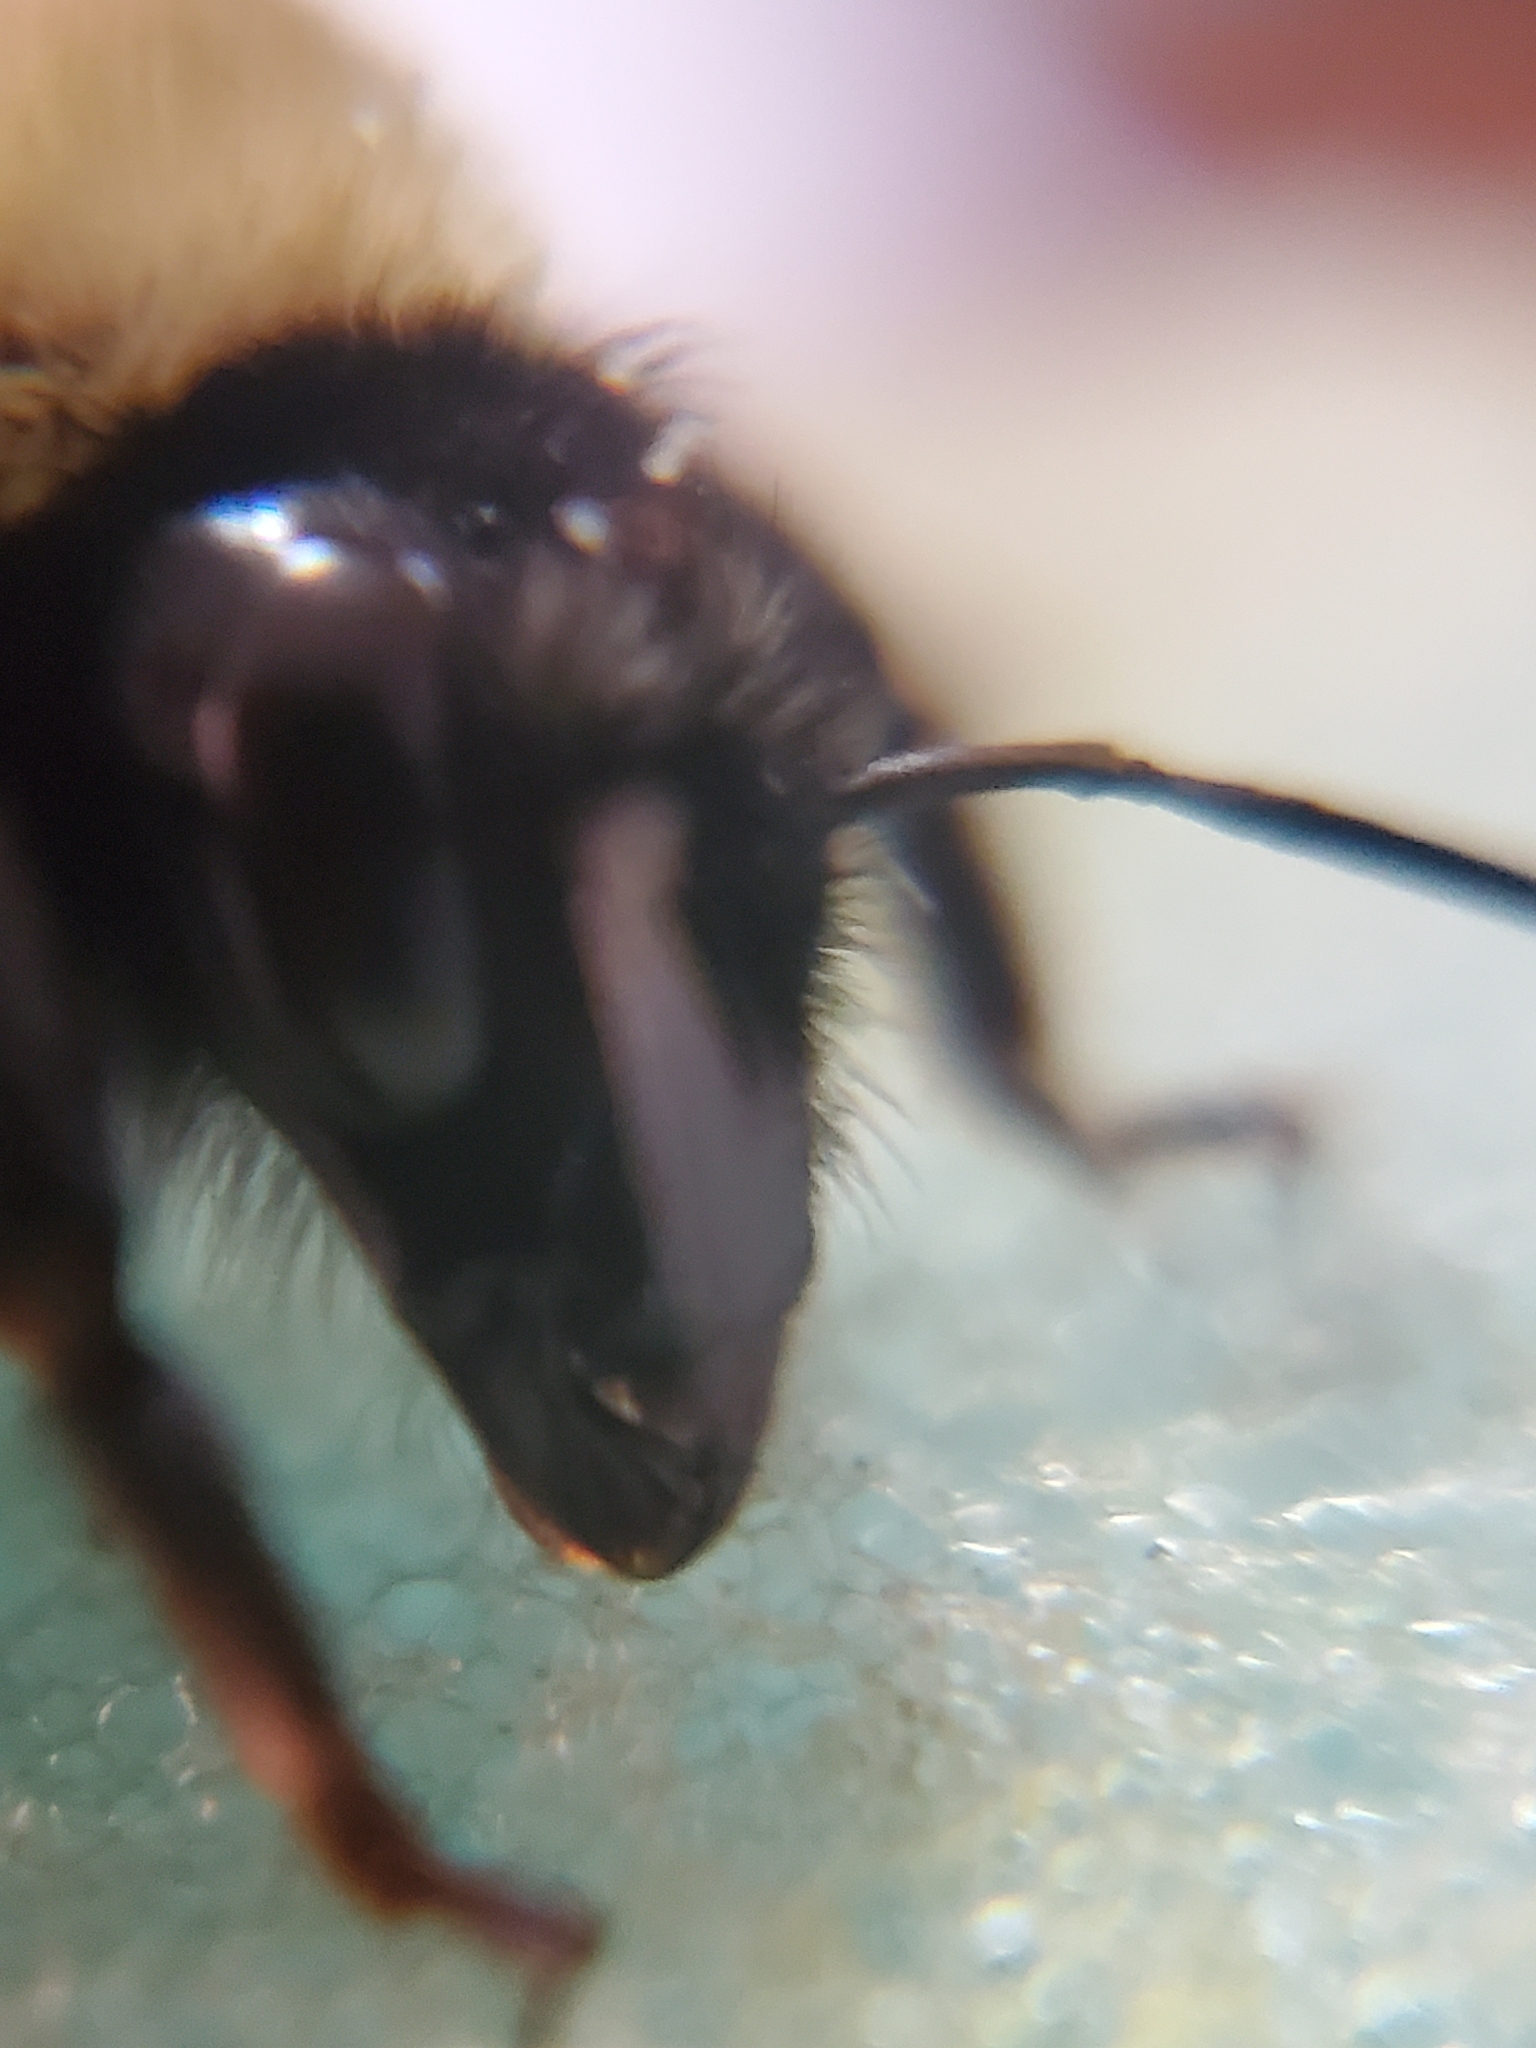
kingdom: Animalia
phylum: Arthropoda
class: Insecta
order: Hymenoptera
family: Apidae
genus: Bombus
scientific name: Bombus fervidus
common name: Yellow bumble bee
